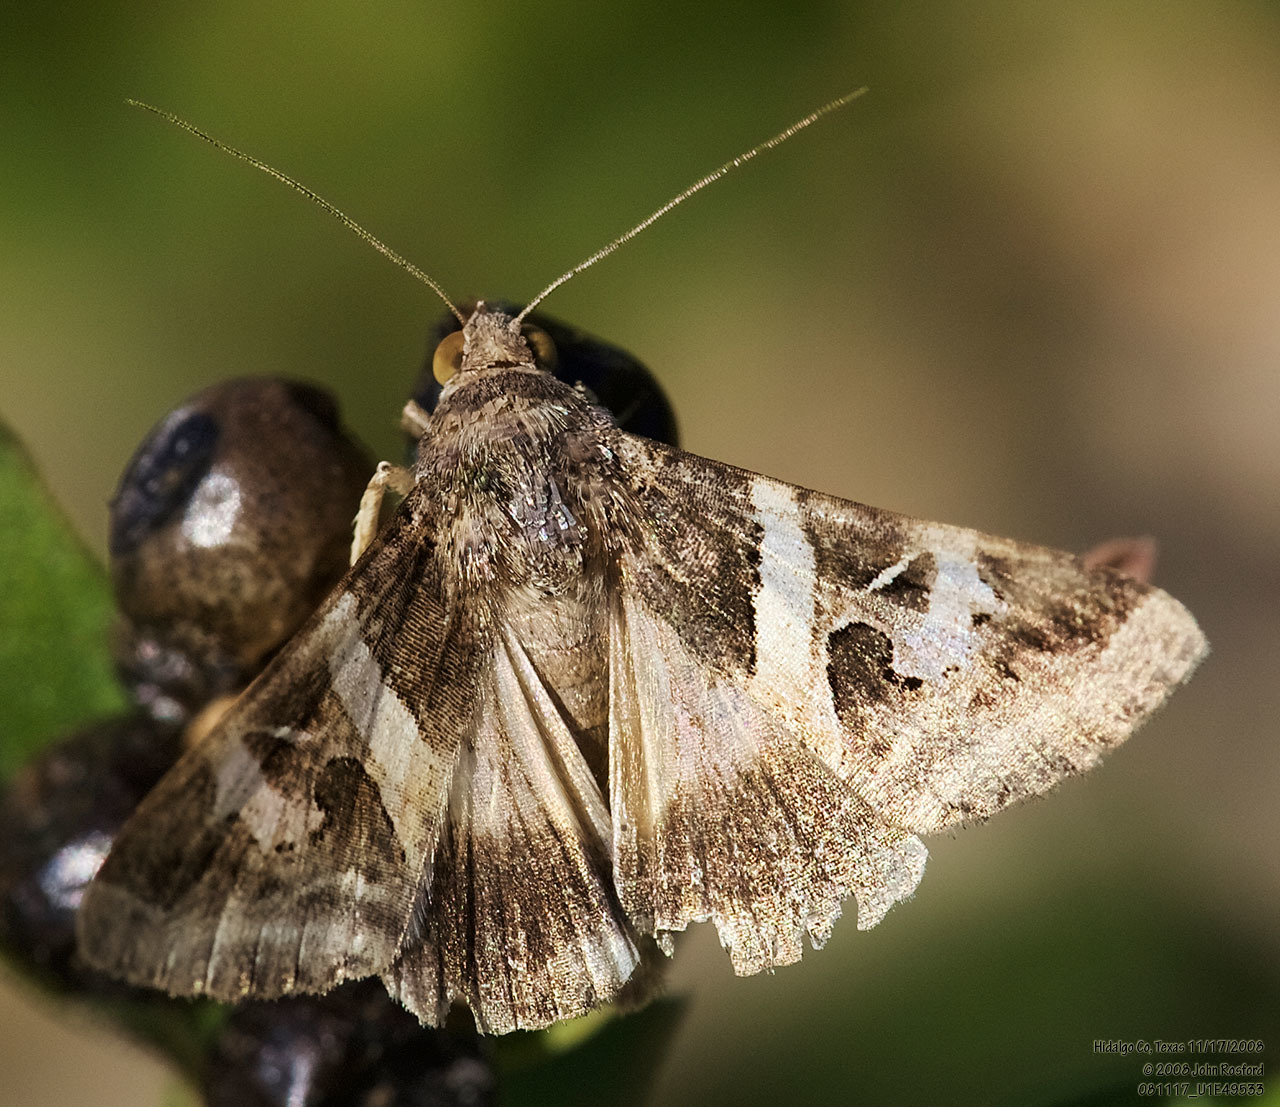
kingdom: Animalia
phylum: Arthropoda
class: Insecta
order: Lepidoptera
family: Erebidae
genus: Melipotis
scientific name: Melipotis indomita
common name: Moth
